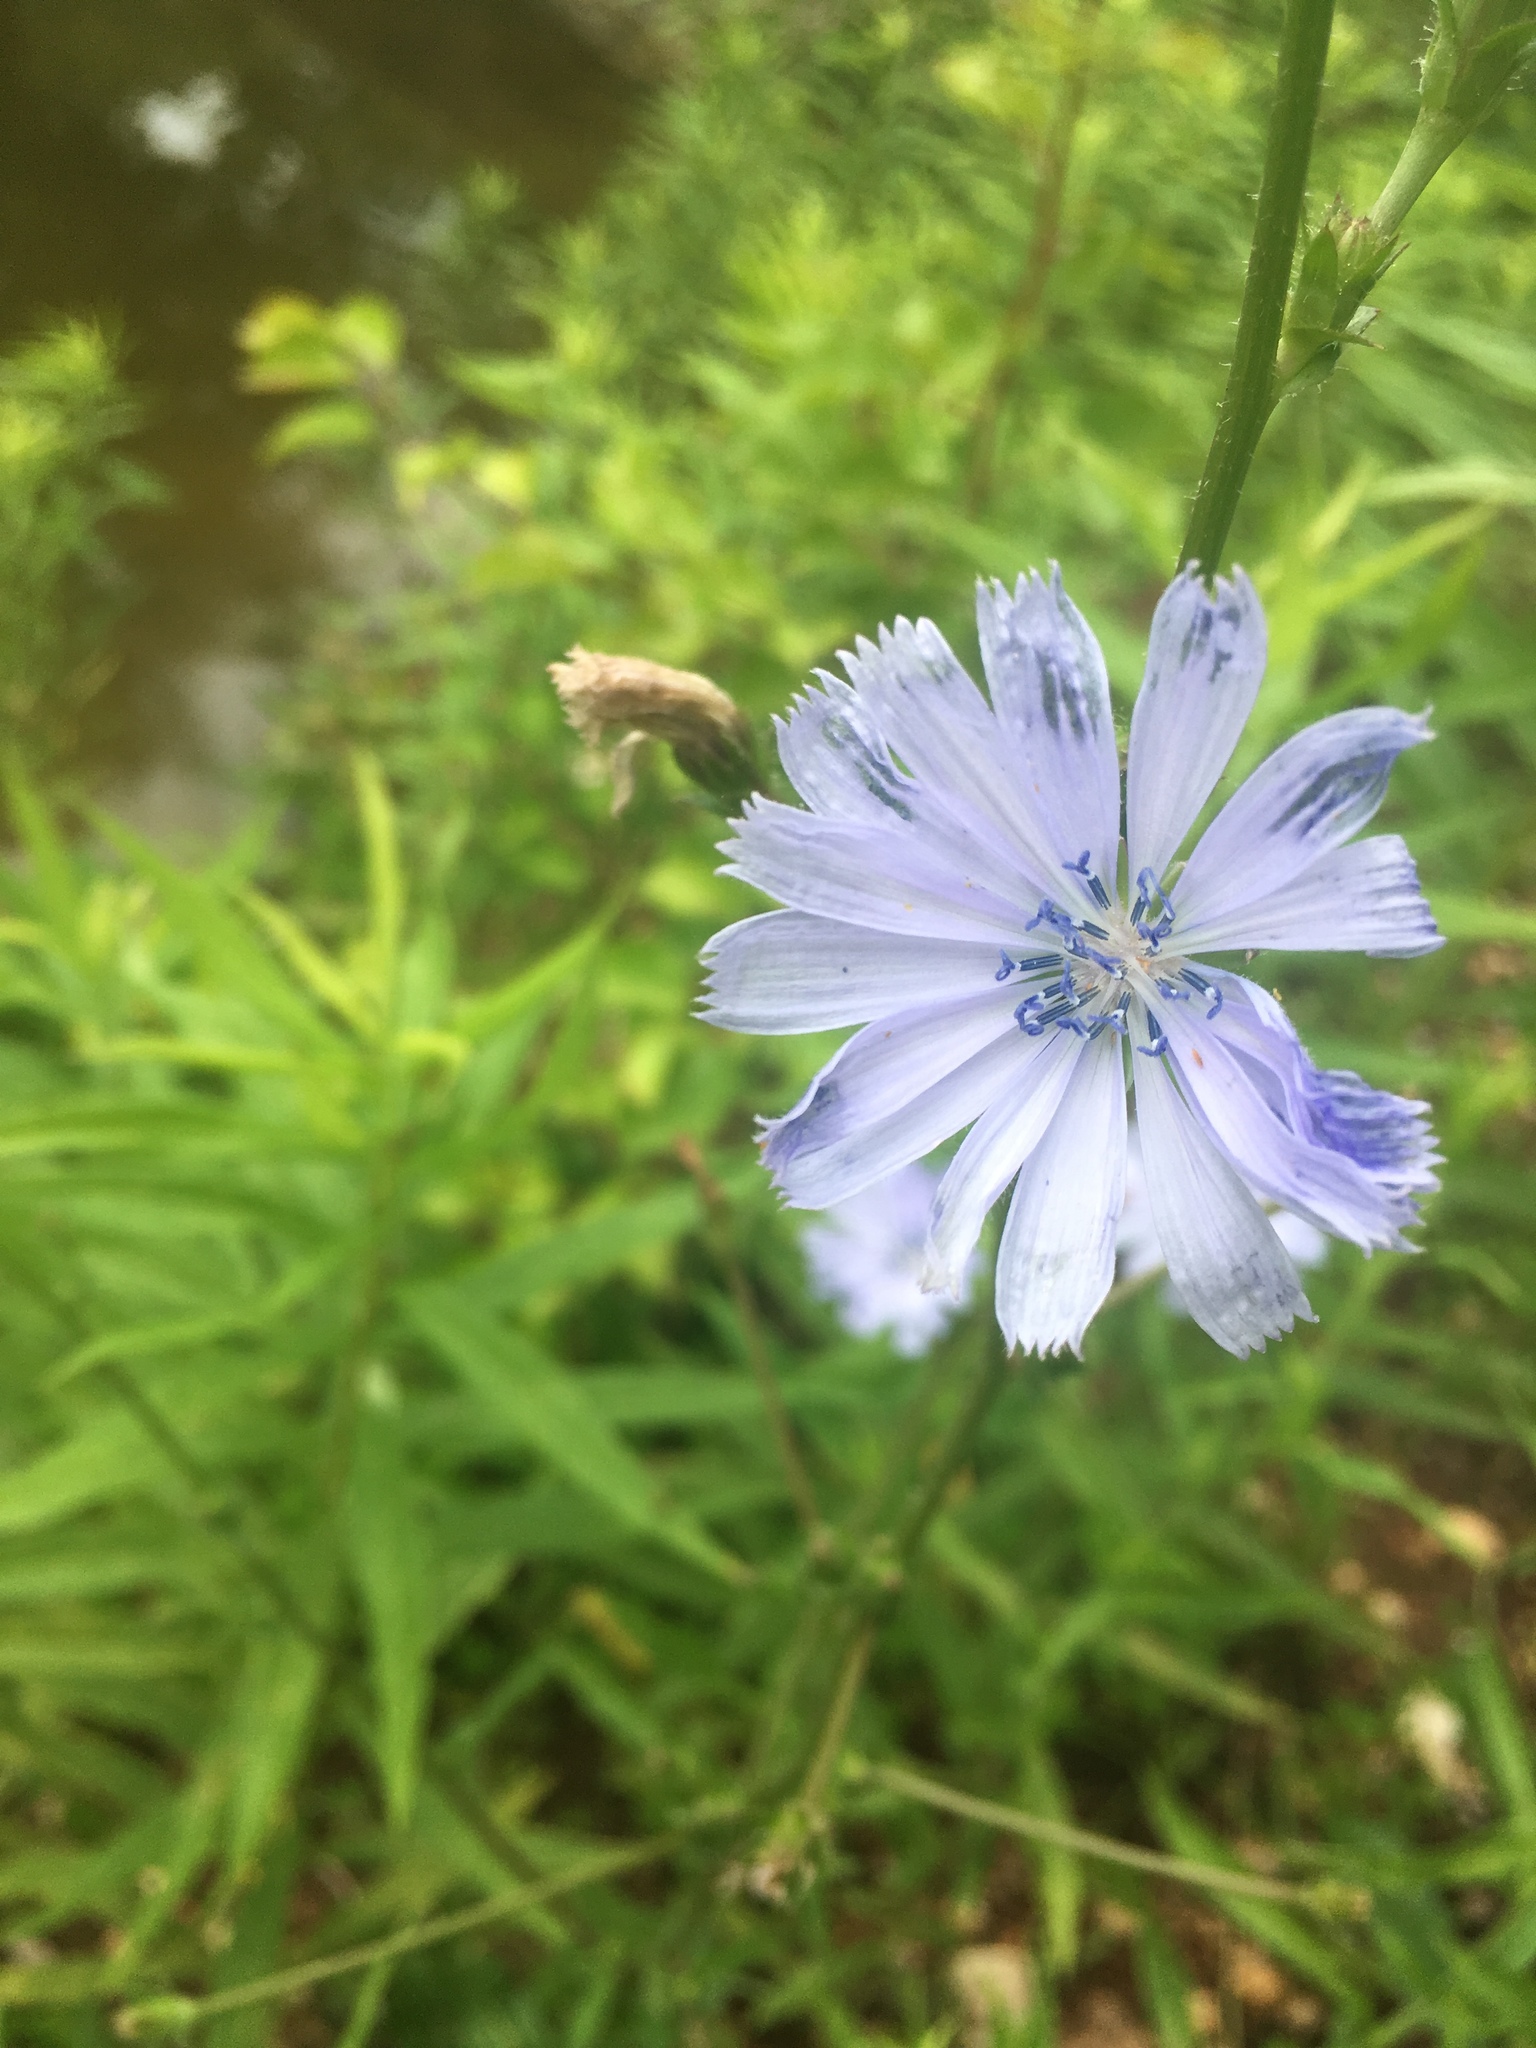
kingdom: Plantae
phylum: Tracheophyta
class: Magnoliopsida
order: Asterales
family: Asteraceae
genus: Cichorium
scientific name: Cichorium intybus
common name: Chicory
